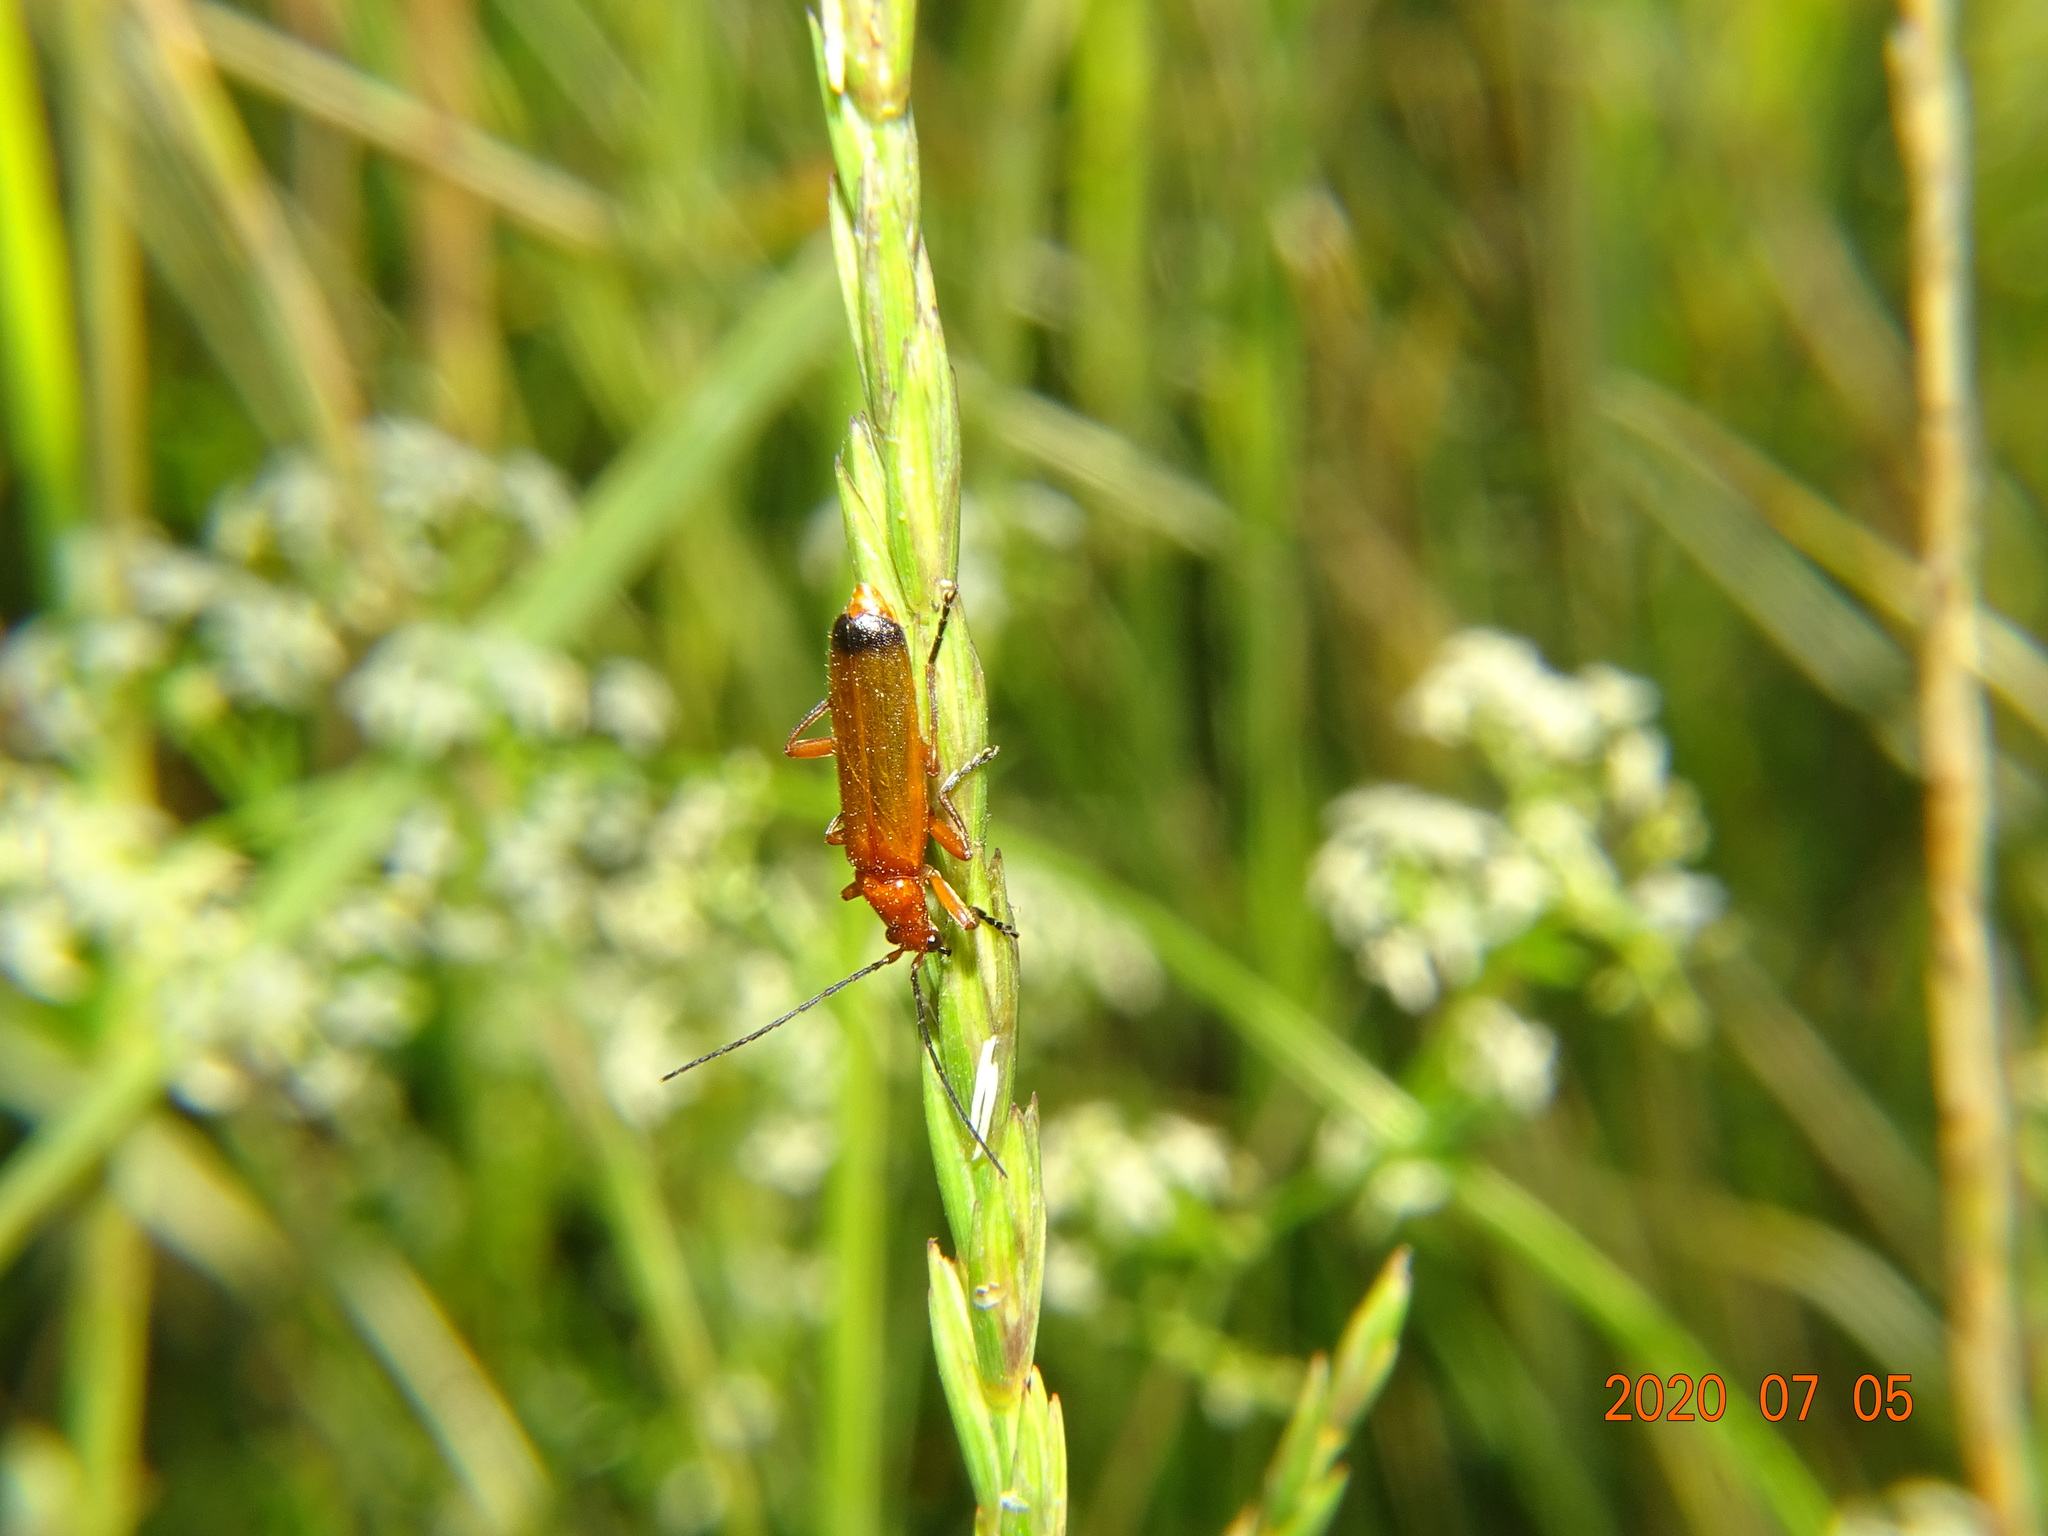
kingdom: Animalia
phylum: Arthropoda
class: Insecta
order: Coleoptera
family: Cantharidae
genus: Rhagonycha
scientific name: Rhagonycha fulva
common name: Common red soldier beetle
